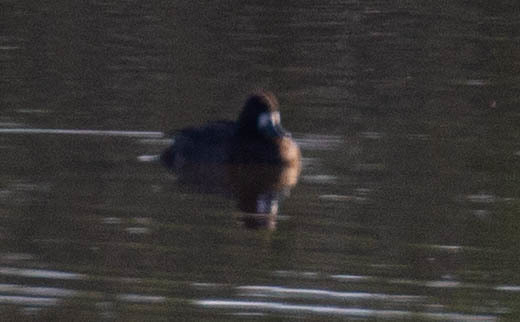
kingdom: Animalia
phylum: Chordata
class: Aves
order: Anseriformes
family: Anatidae
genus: Aythya
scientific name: Aythya affinis
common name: Lesser scaup
